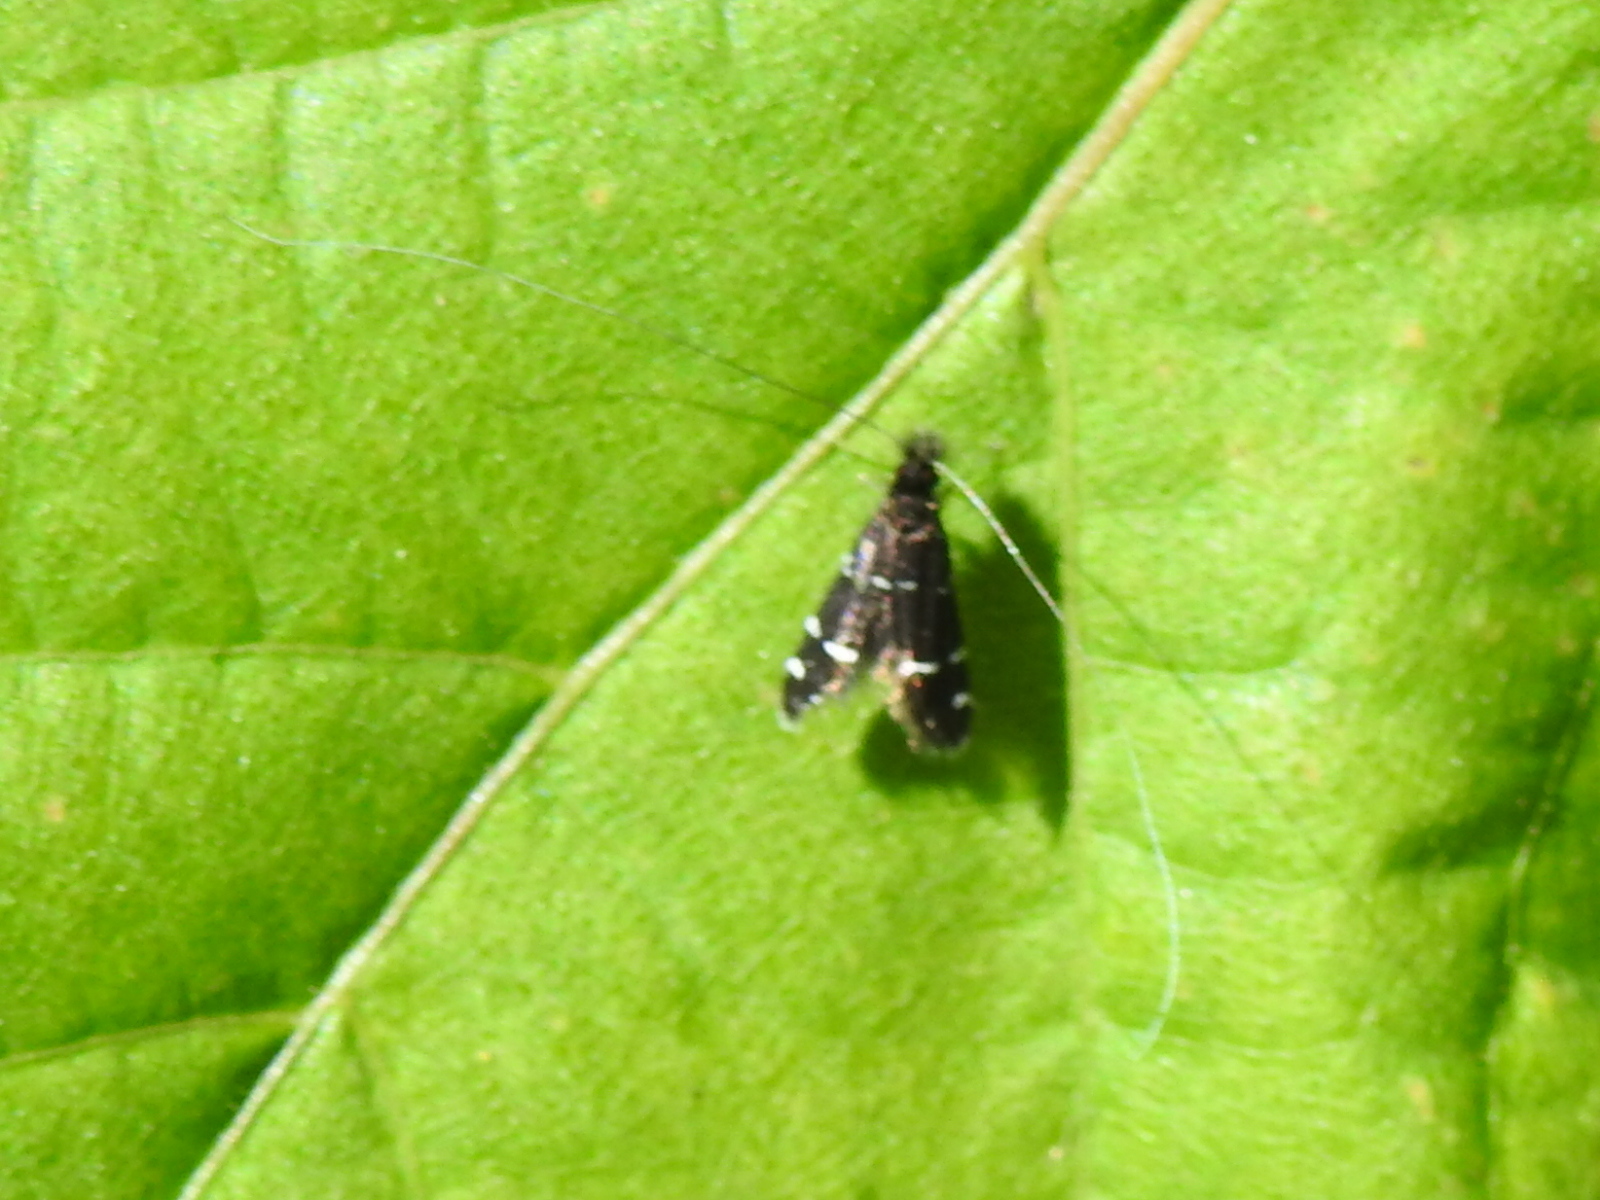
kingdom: Animalia
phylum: Arthropoda
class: Insecta
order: Lepidoptera
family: Adelidae
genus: Adela
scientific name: Adela septentrionella
